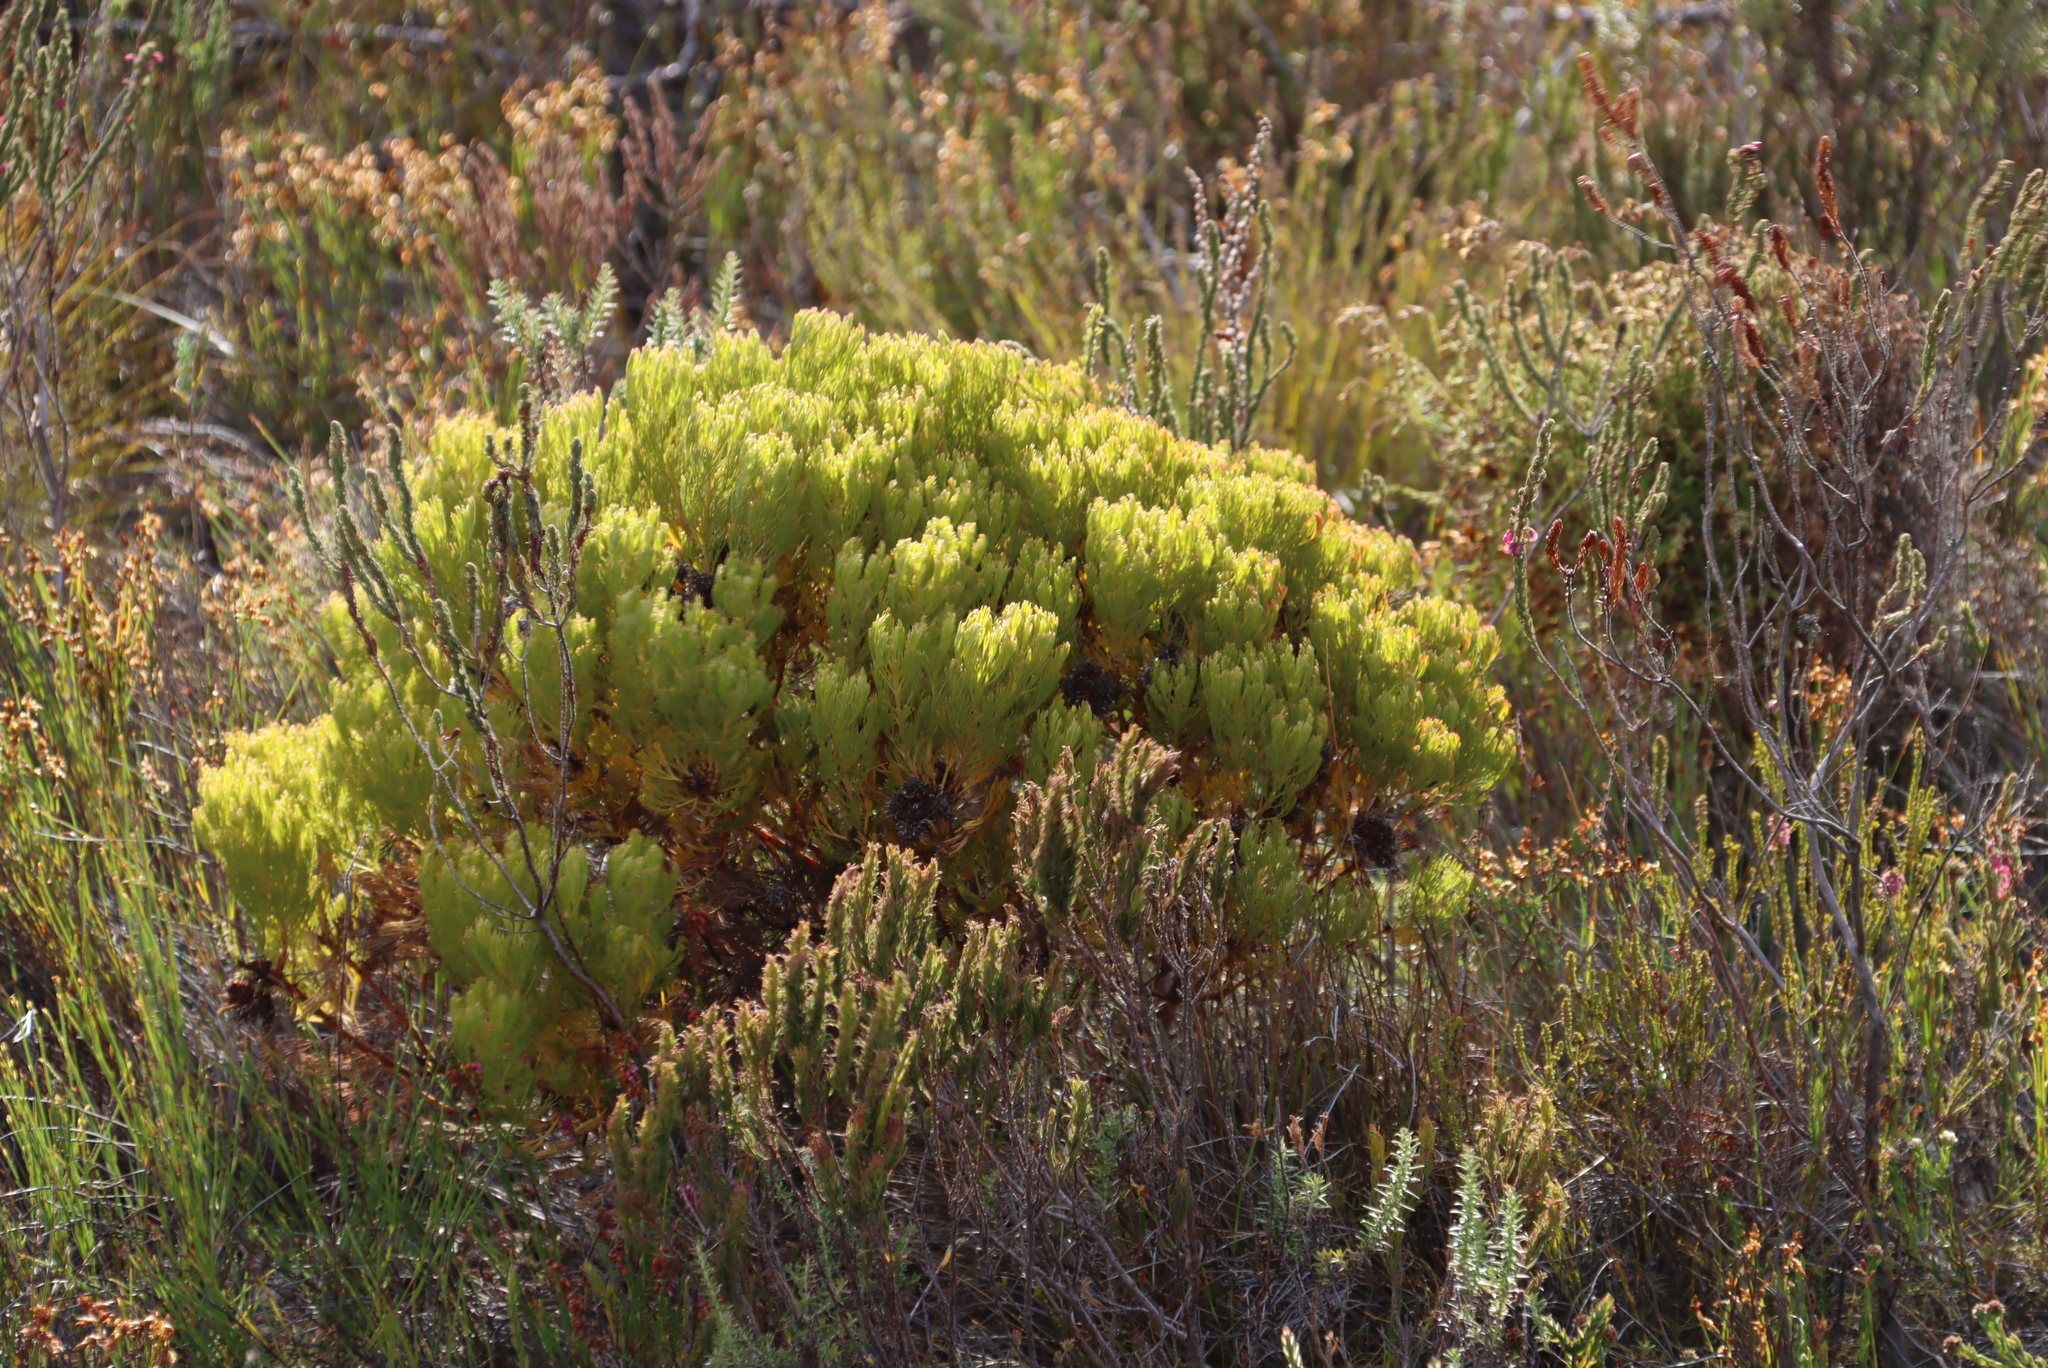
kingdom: Plantae
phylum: Tracheophyta
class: Magnoliopsida
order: Proteales
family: Proteaceae
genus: Serruria
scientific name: Serruria glomerata
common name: Cluster spiderhead
